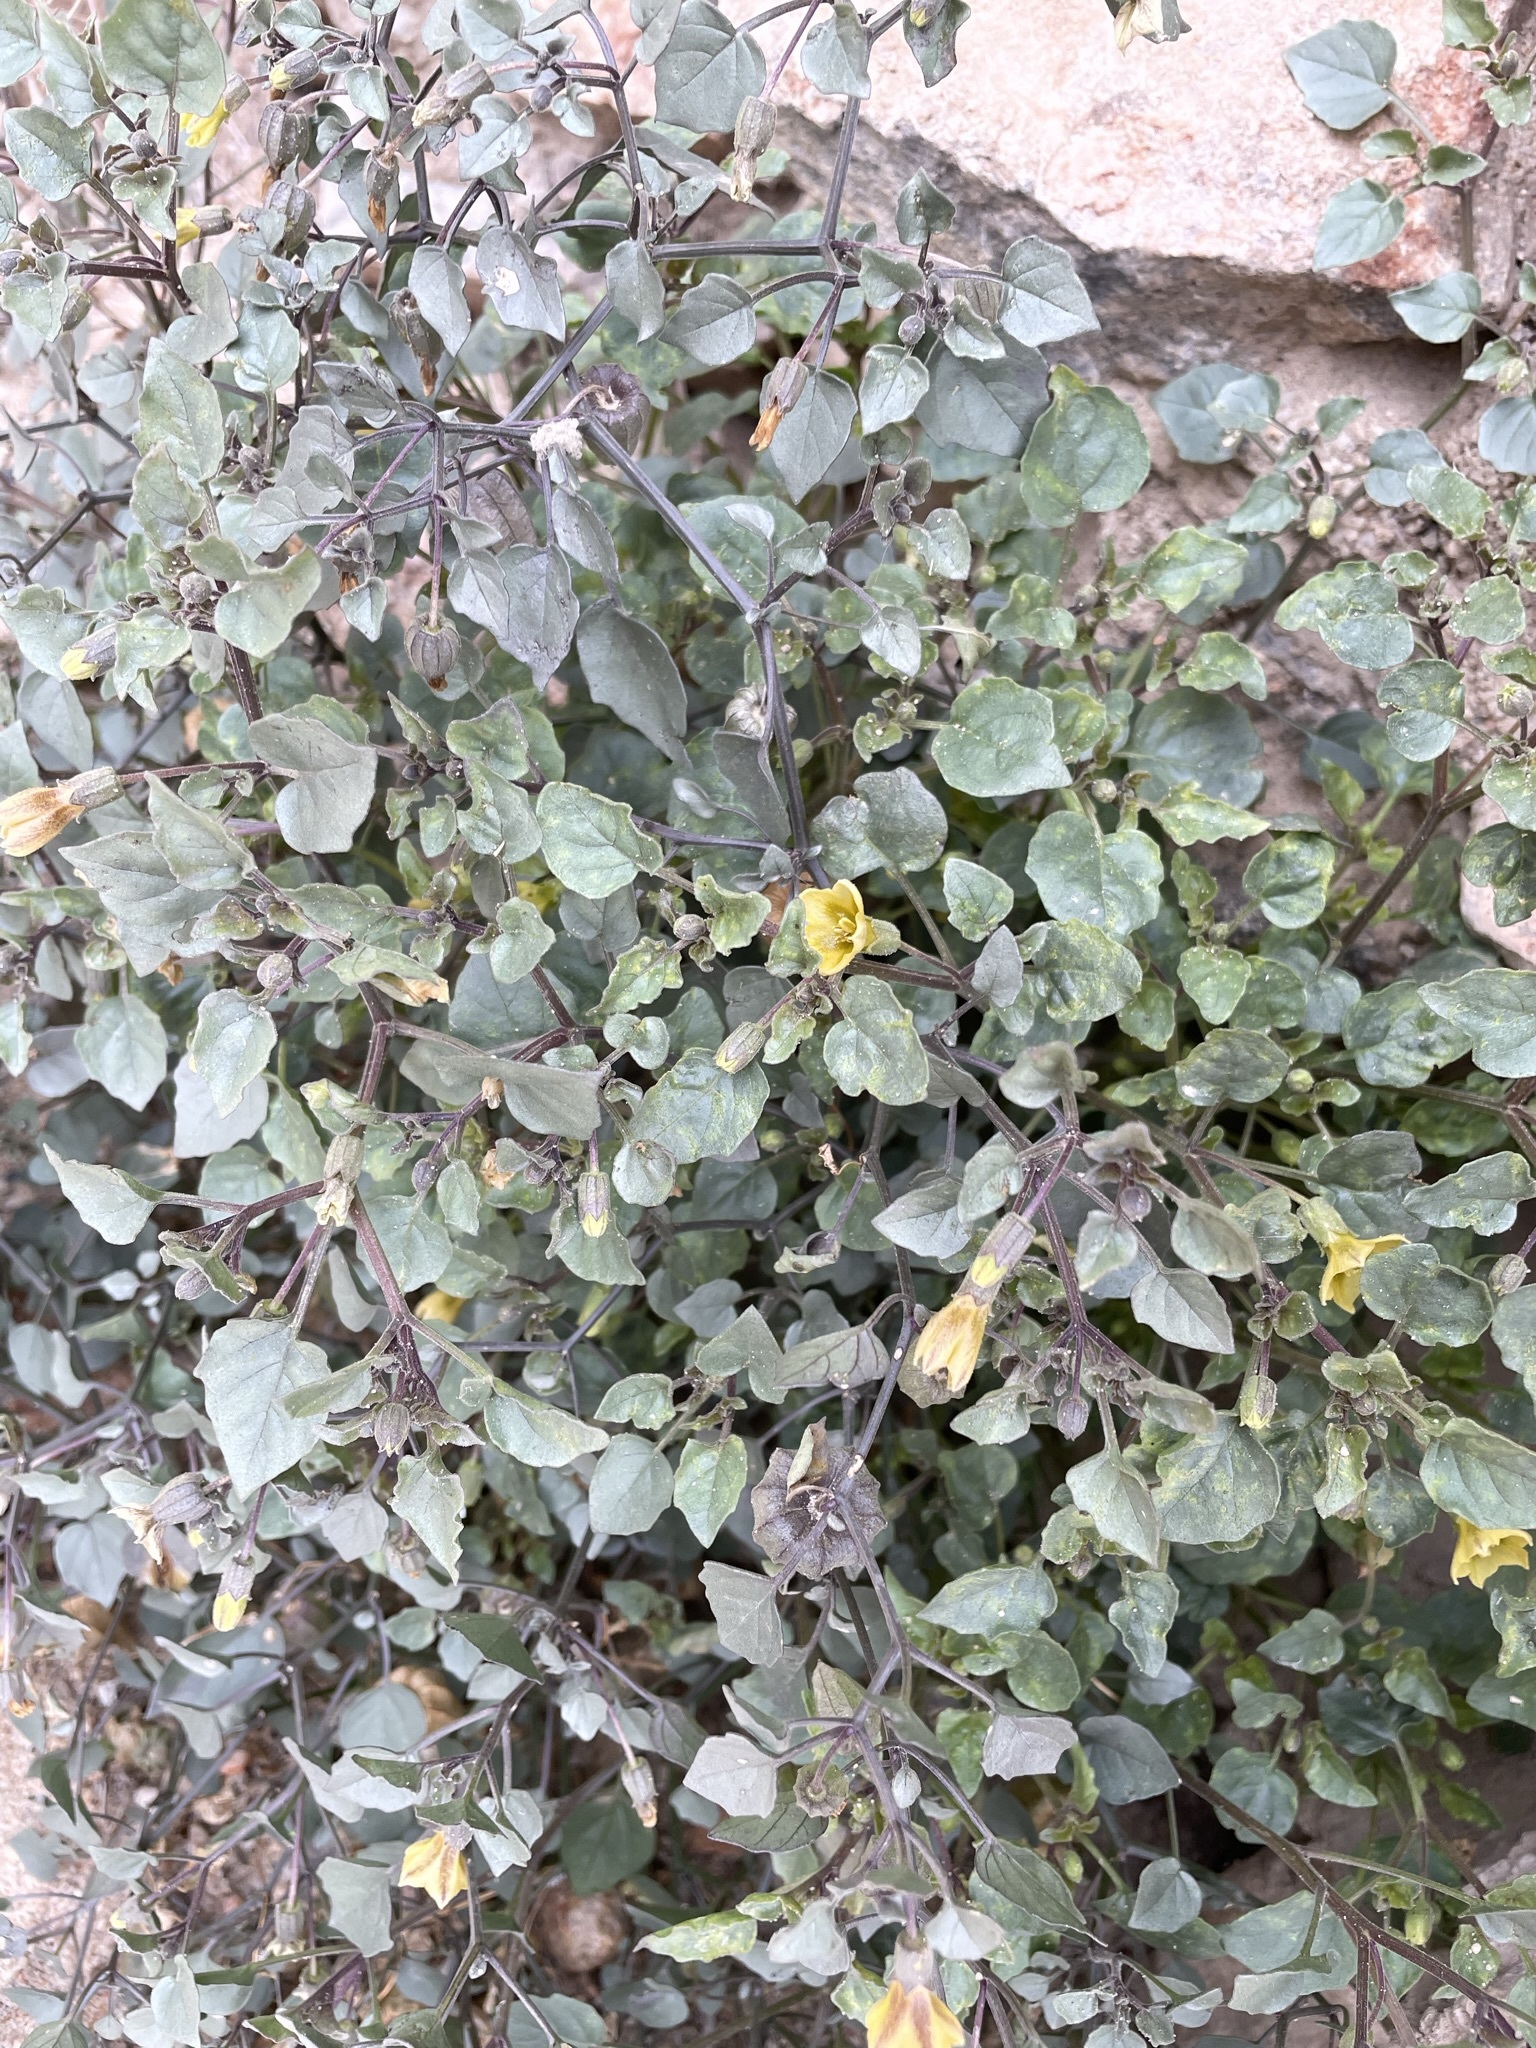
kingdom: Plantae
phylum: Tracheophyta
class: Magnoliopsida
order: Solanales
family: Solanaceae
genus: Physalis
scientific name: Physalis crassifolia
